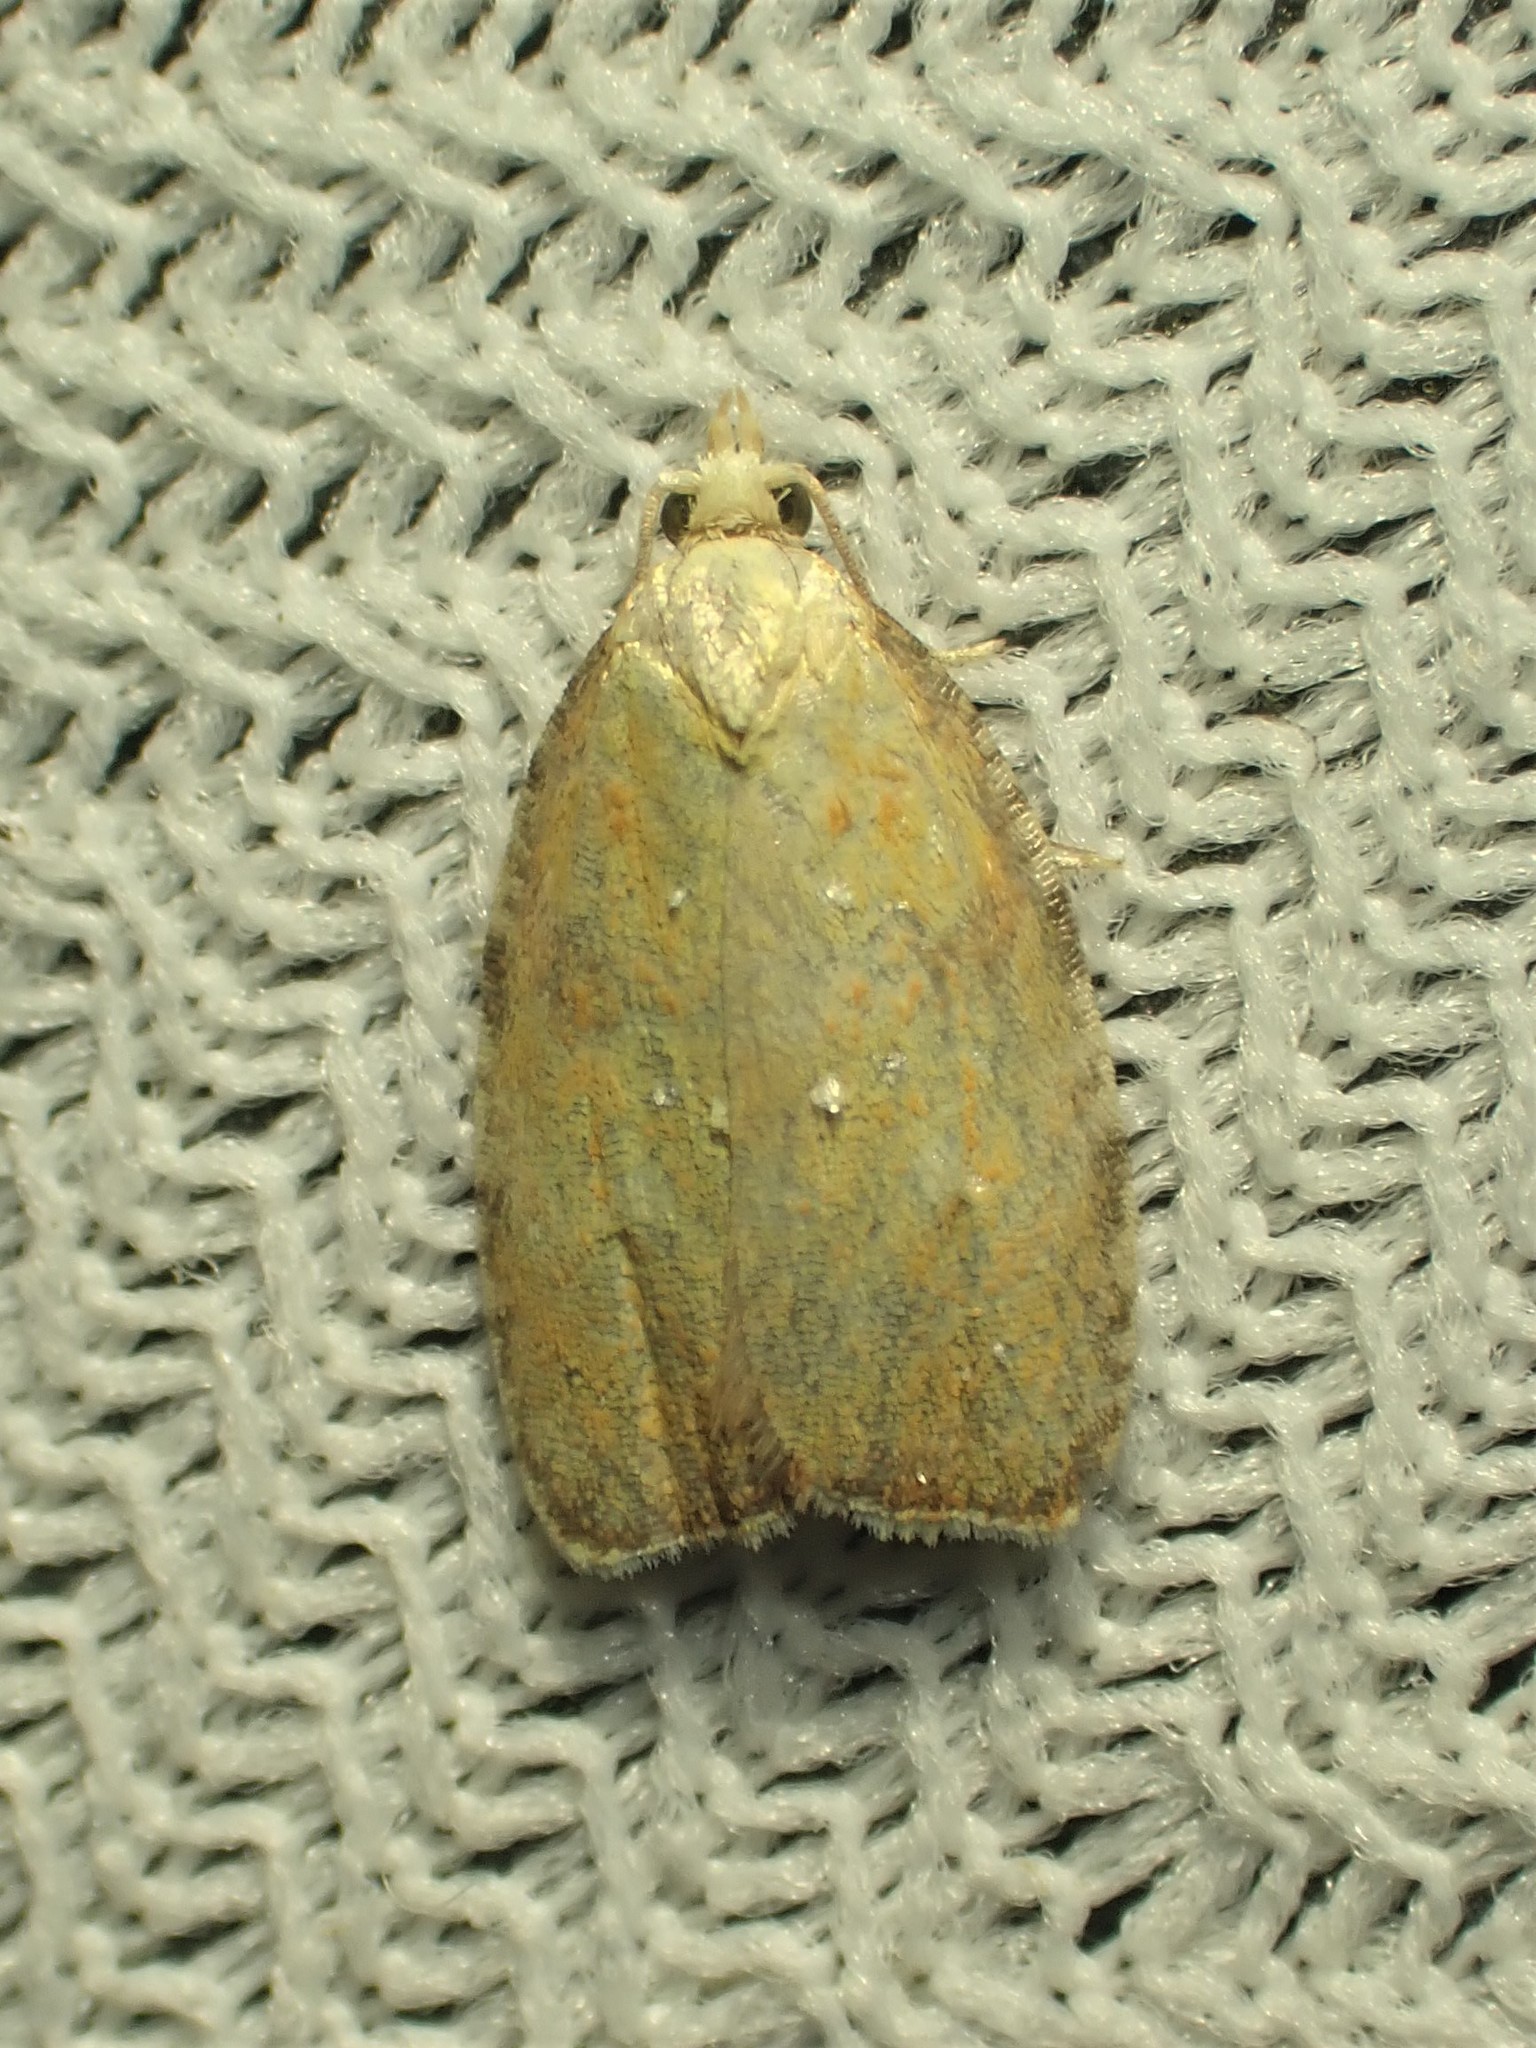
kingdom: Animalia
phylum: Arthropoda
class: Insecta
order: Lepidoptera
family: Tortricidae
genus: Acleris
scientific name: Acleris curvalana
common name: Blueberry leaftier moth
